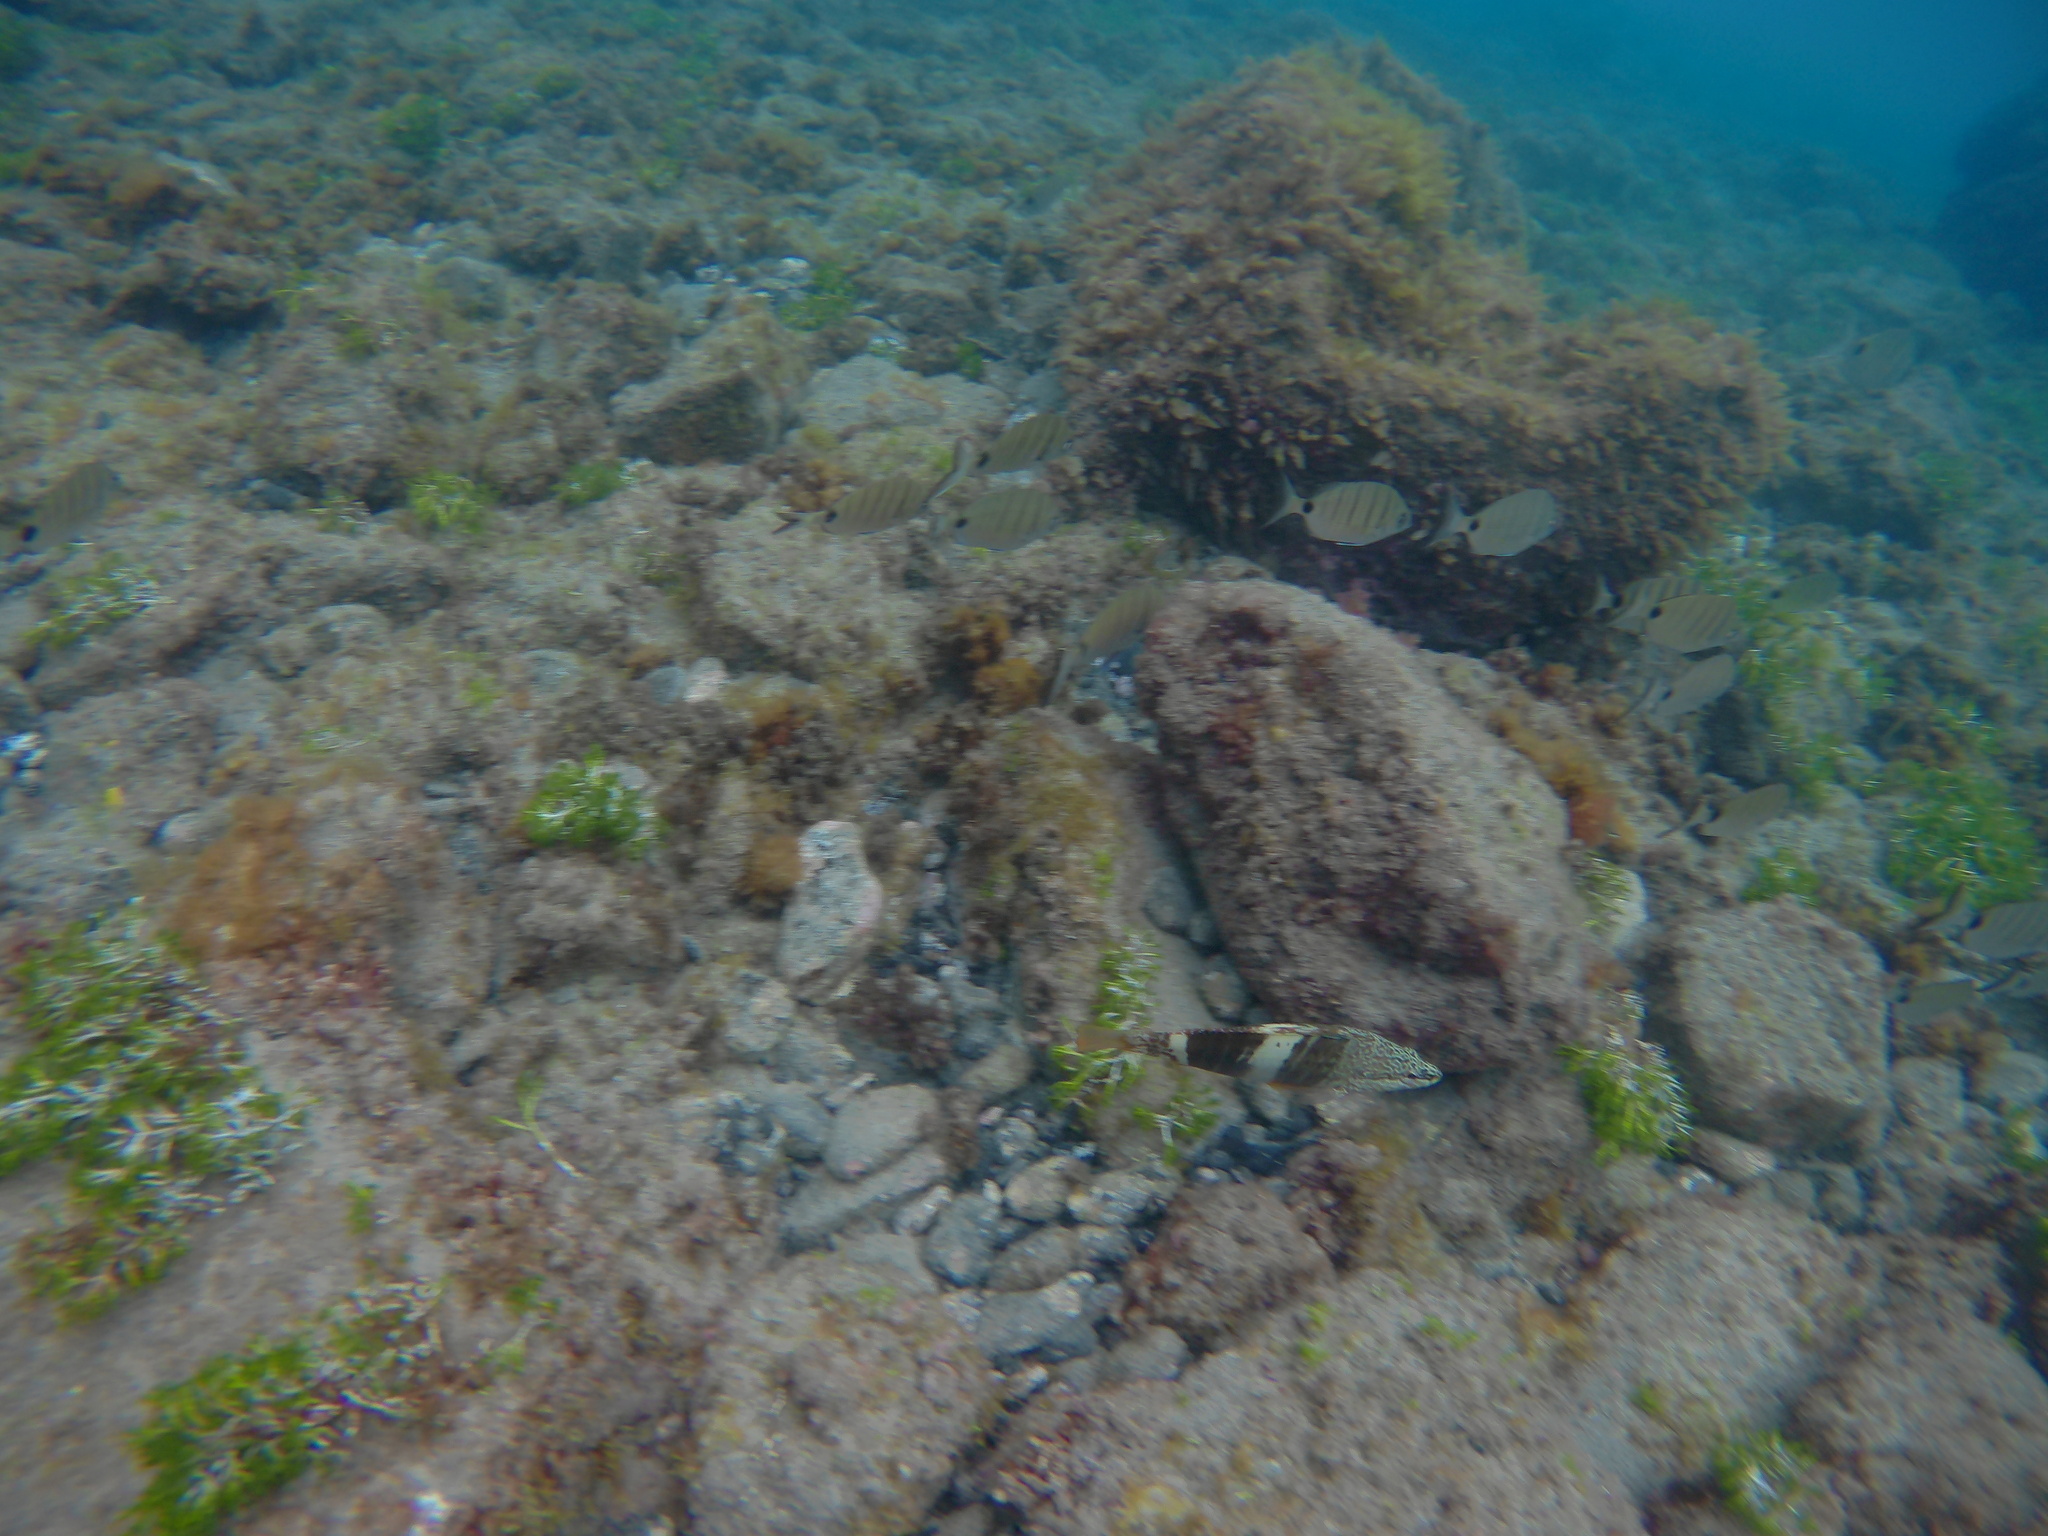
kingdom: Animalia
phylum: Chordata
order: Perciformes
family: Serranidae
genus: Serranus
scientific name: Serranus scriba
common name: Painted comber
